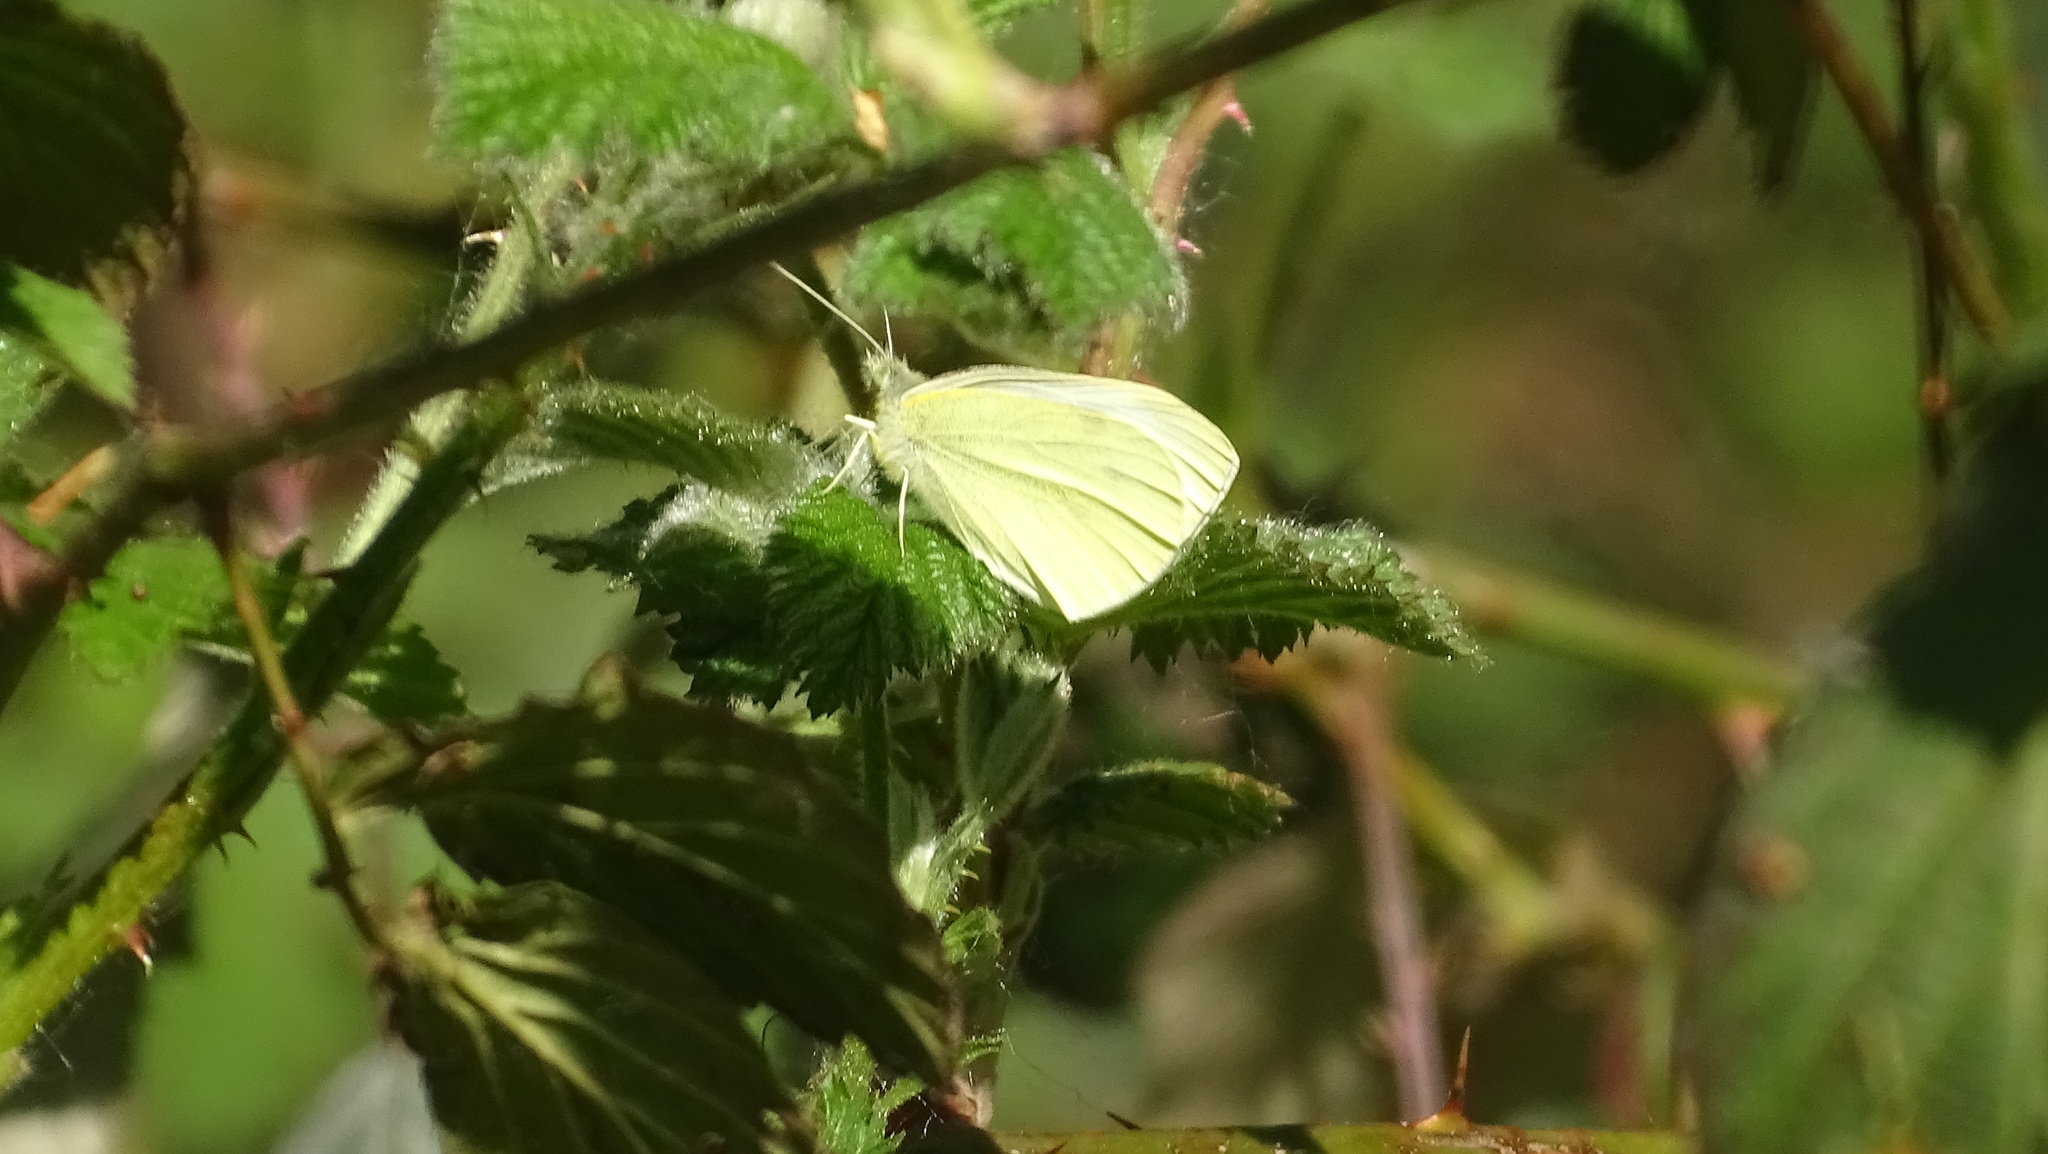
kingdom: Animalia
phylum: Arthropoda
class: Insecta
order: Lepidoptera
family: Pieridae
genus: Pieris
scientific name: Pieris rapae
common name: Small white
